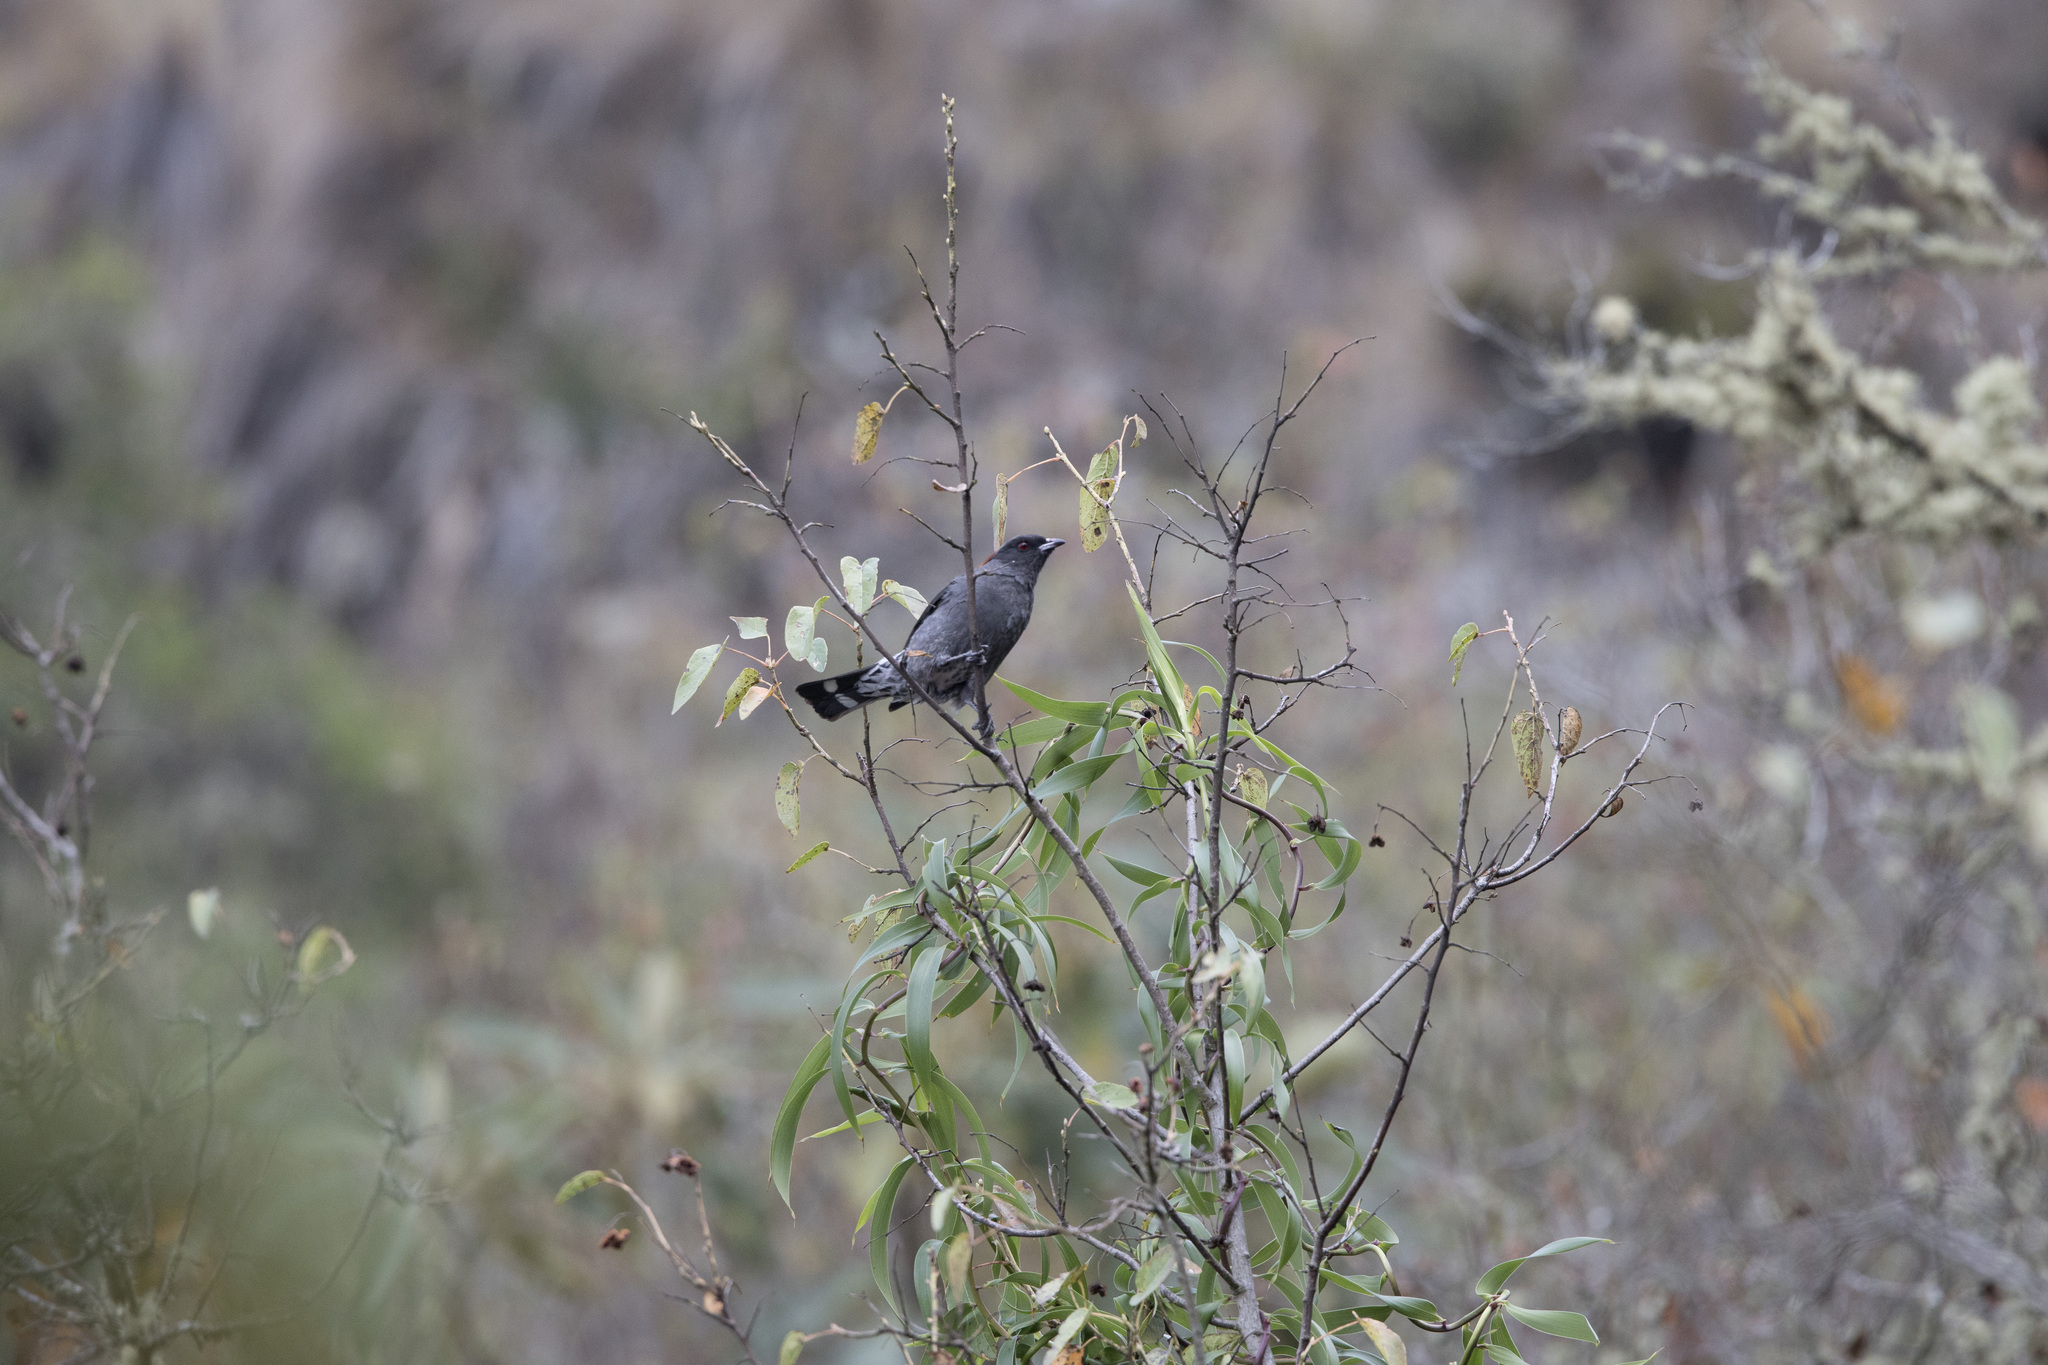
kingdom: Animalia
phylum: Chordata
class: Aves
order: Passeriformes
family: Cotingidae
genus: Ampelion
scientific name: Ampelion rubrocristatus
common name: Red-crested cotinga
